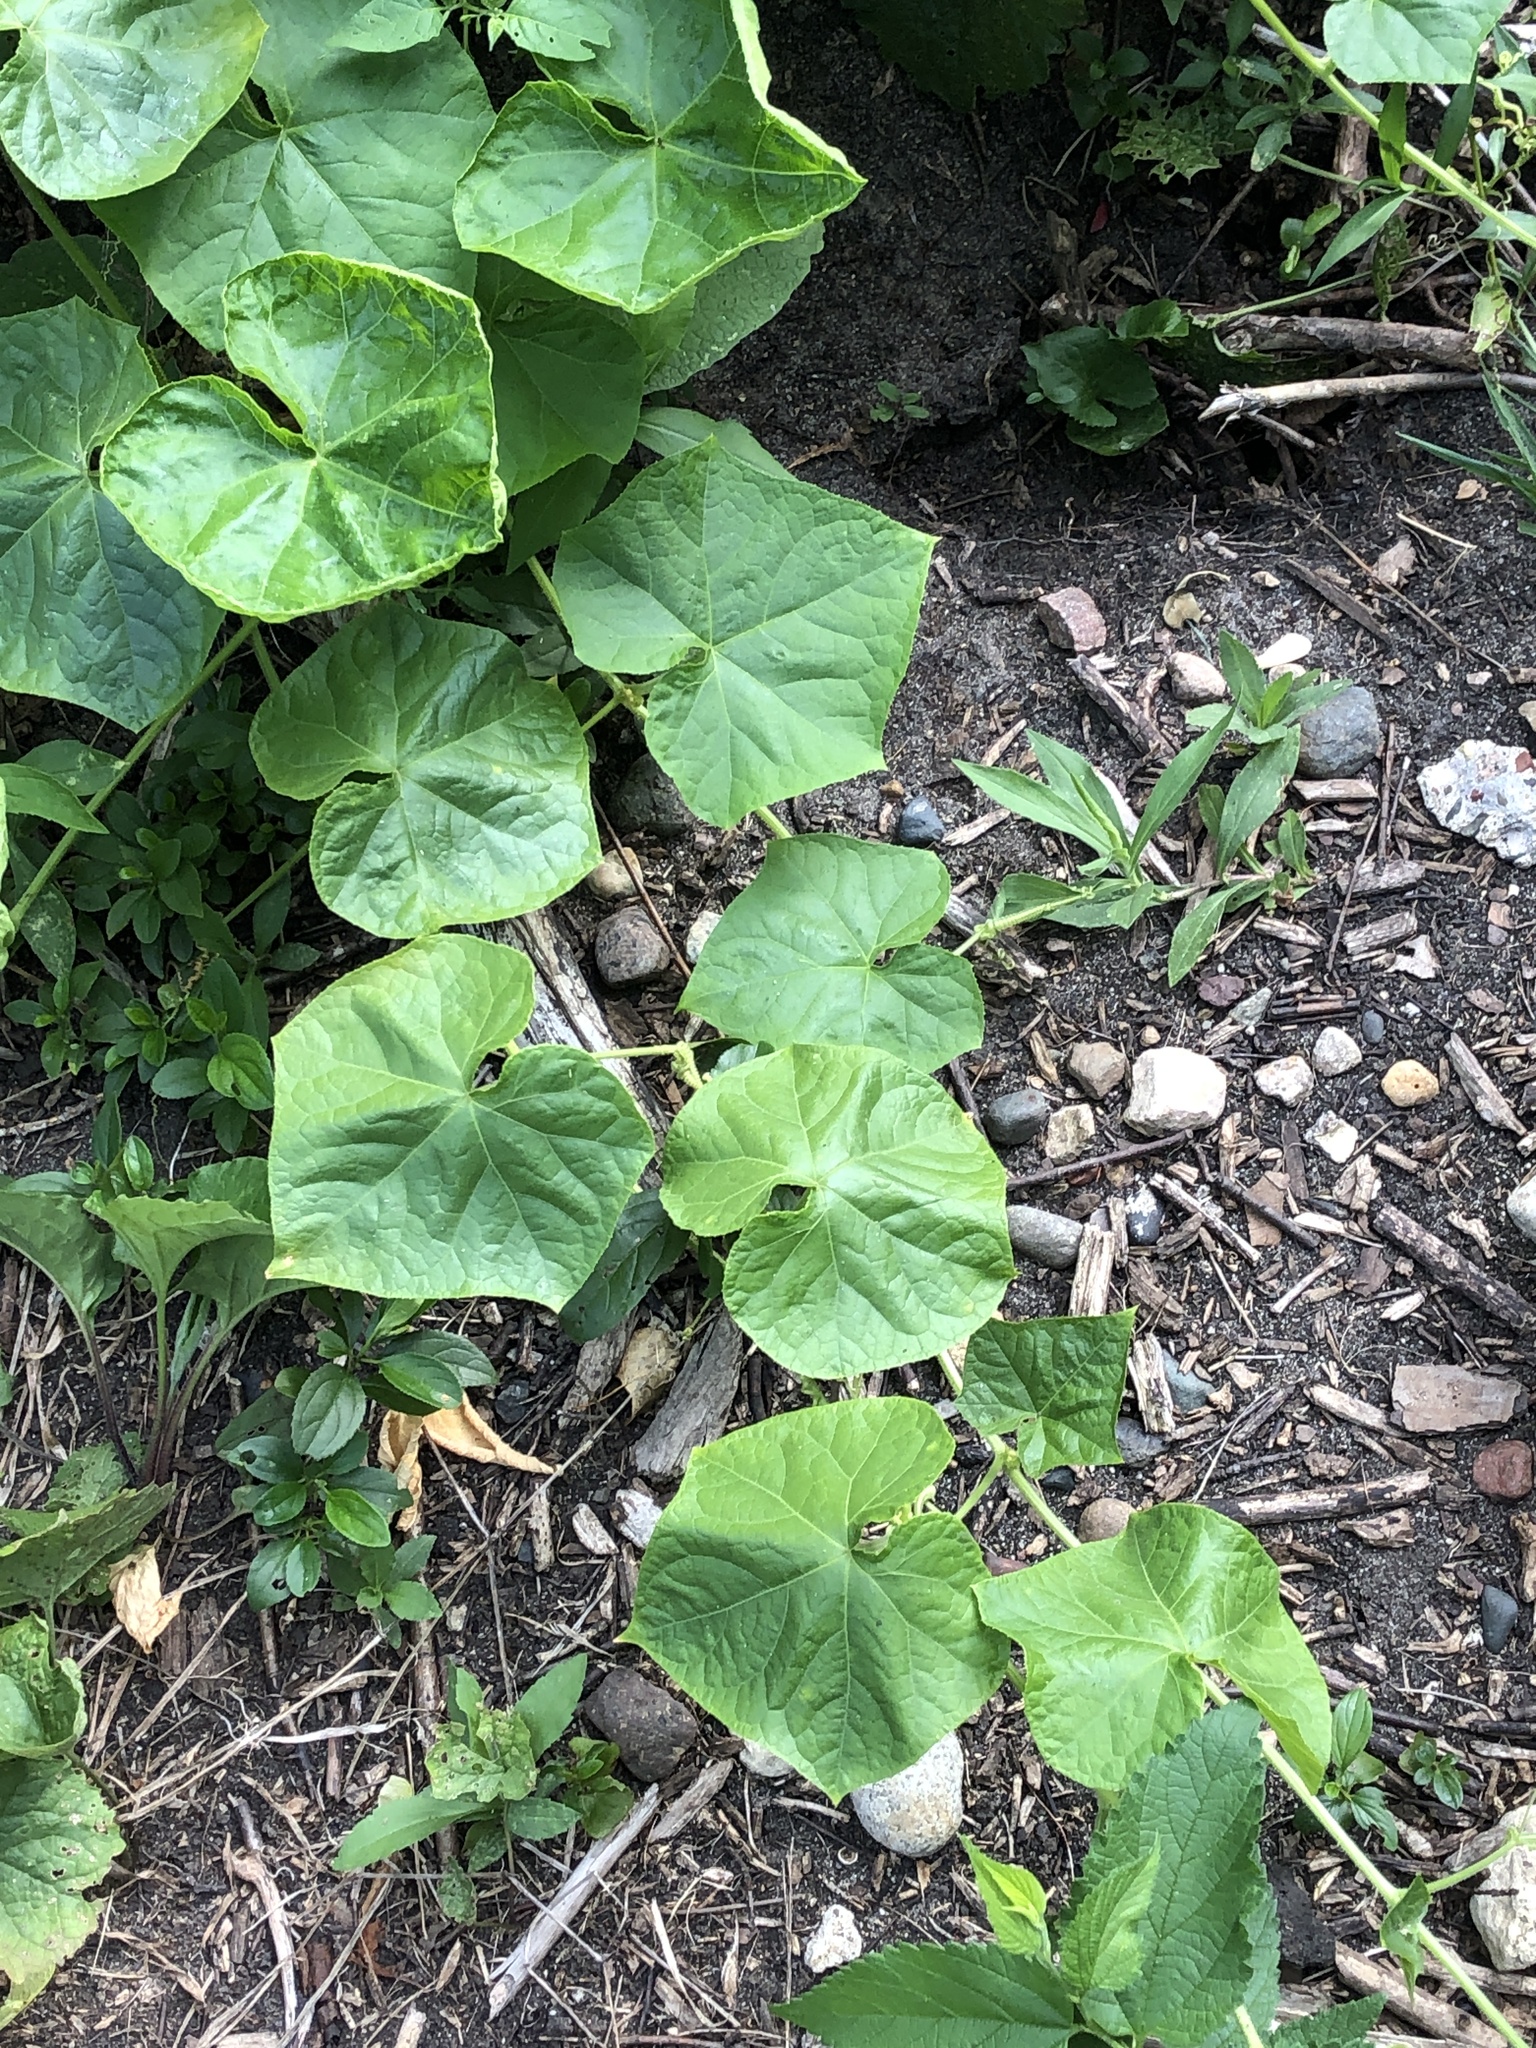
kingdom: Plantae
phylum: Tracheophyta
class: Magnoliopsida
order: Cucurbitales
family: Cucurbitaceae
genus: Sicyos
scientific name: Sicyos angulatus
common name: Angled burr cucumber
